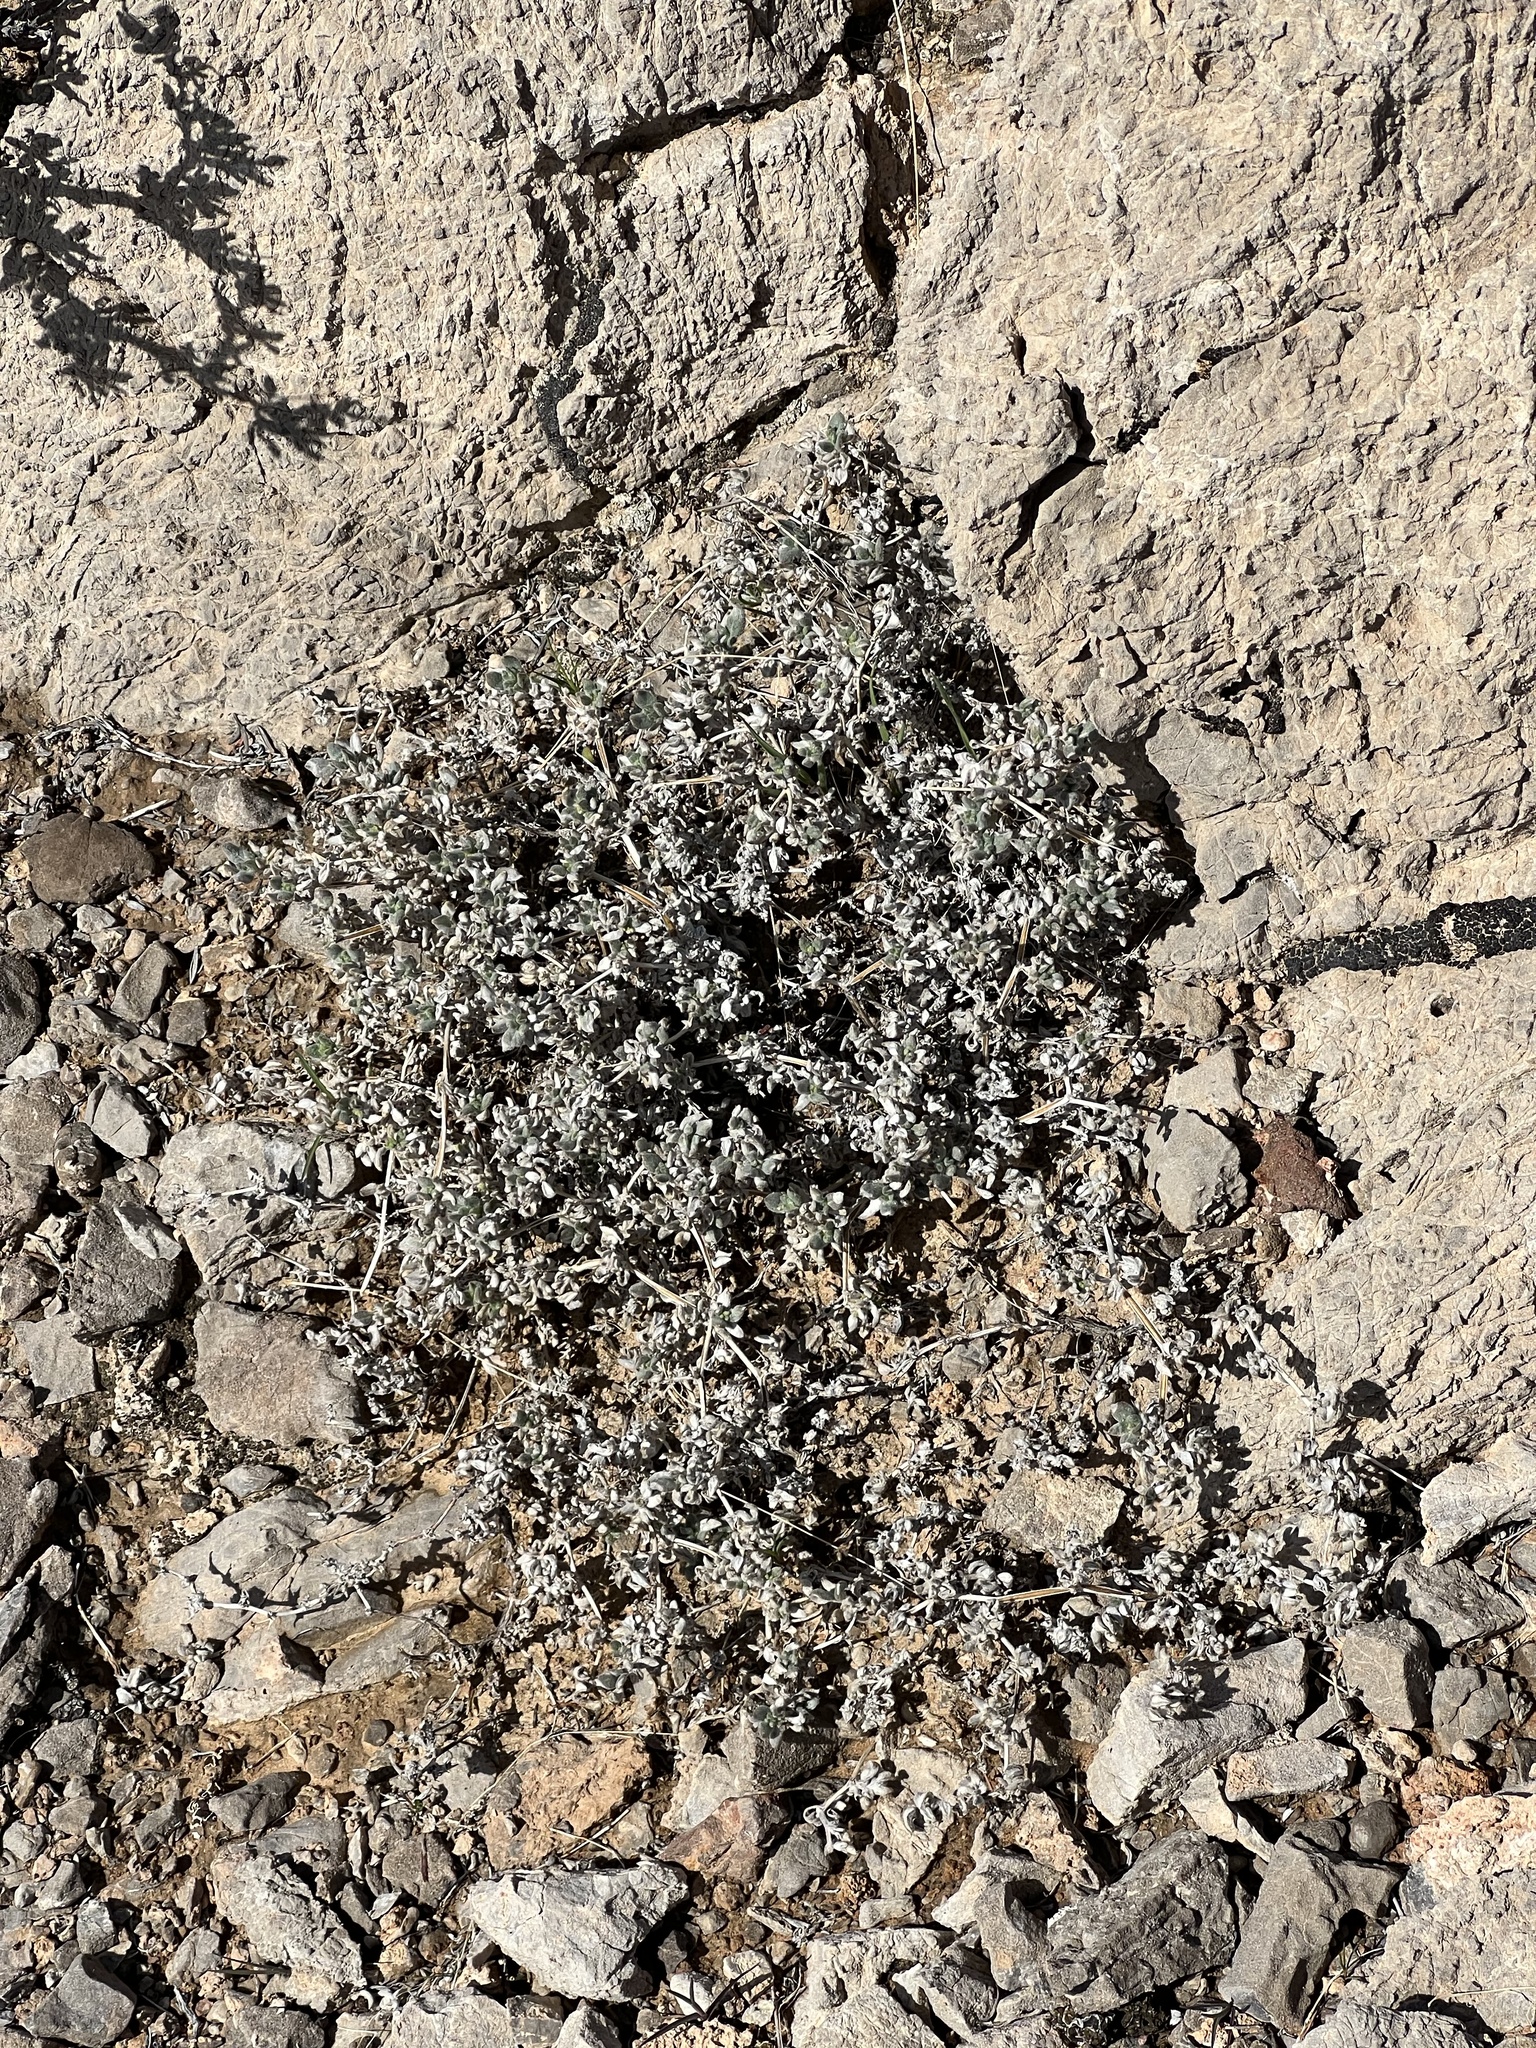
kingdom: Plantae
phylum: Tracheophyta
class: Magnoliopsida
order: Boraginales
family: Ehretiaceae
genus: Tiquilia
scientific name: Tiquilia canescens
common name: Hairy tiquilia
